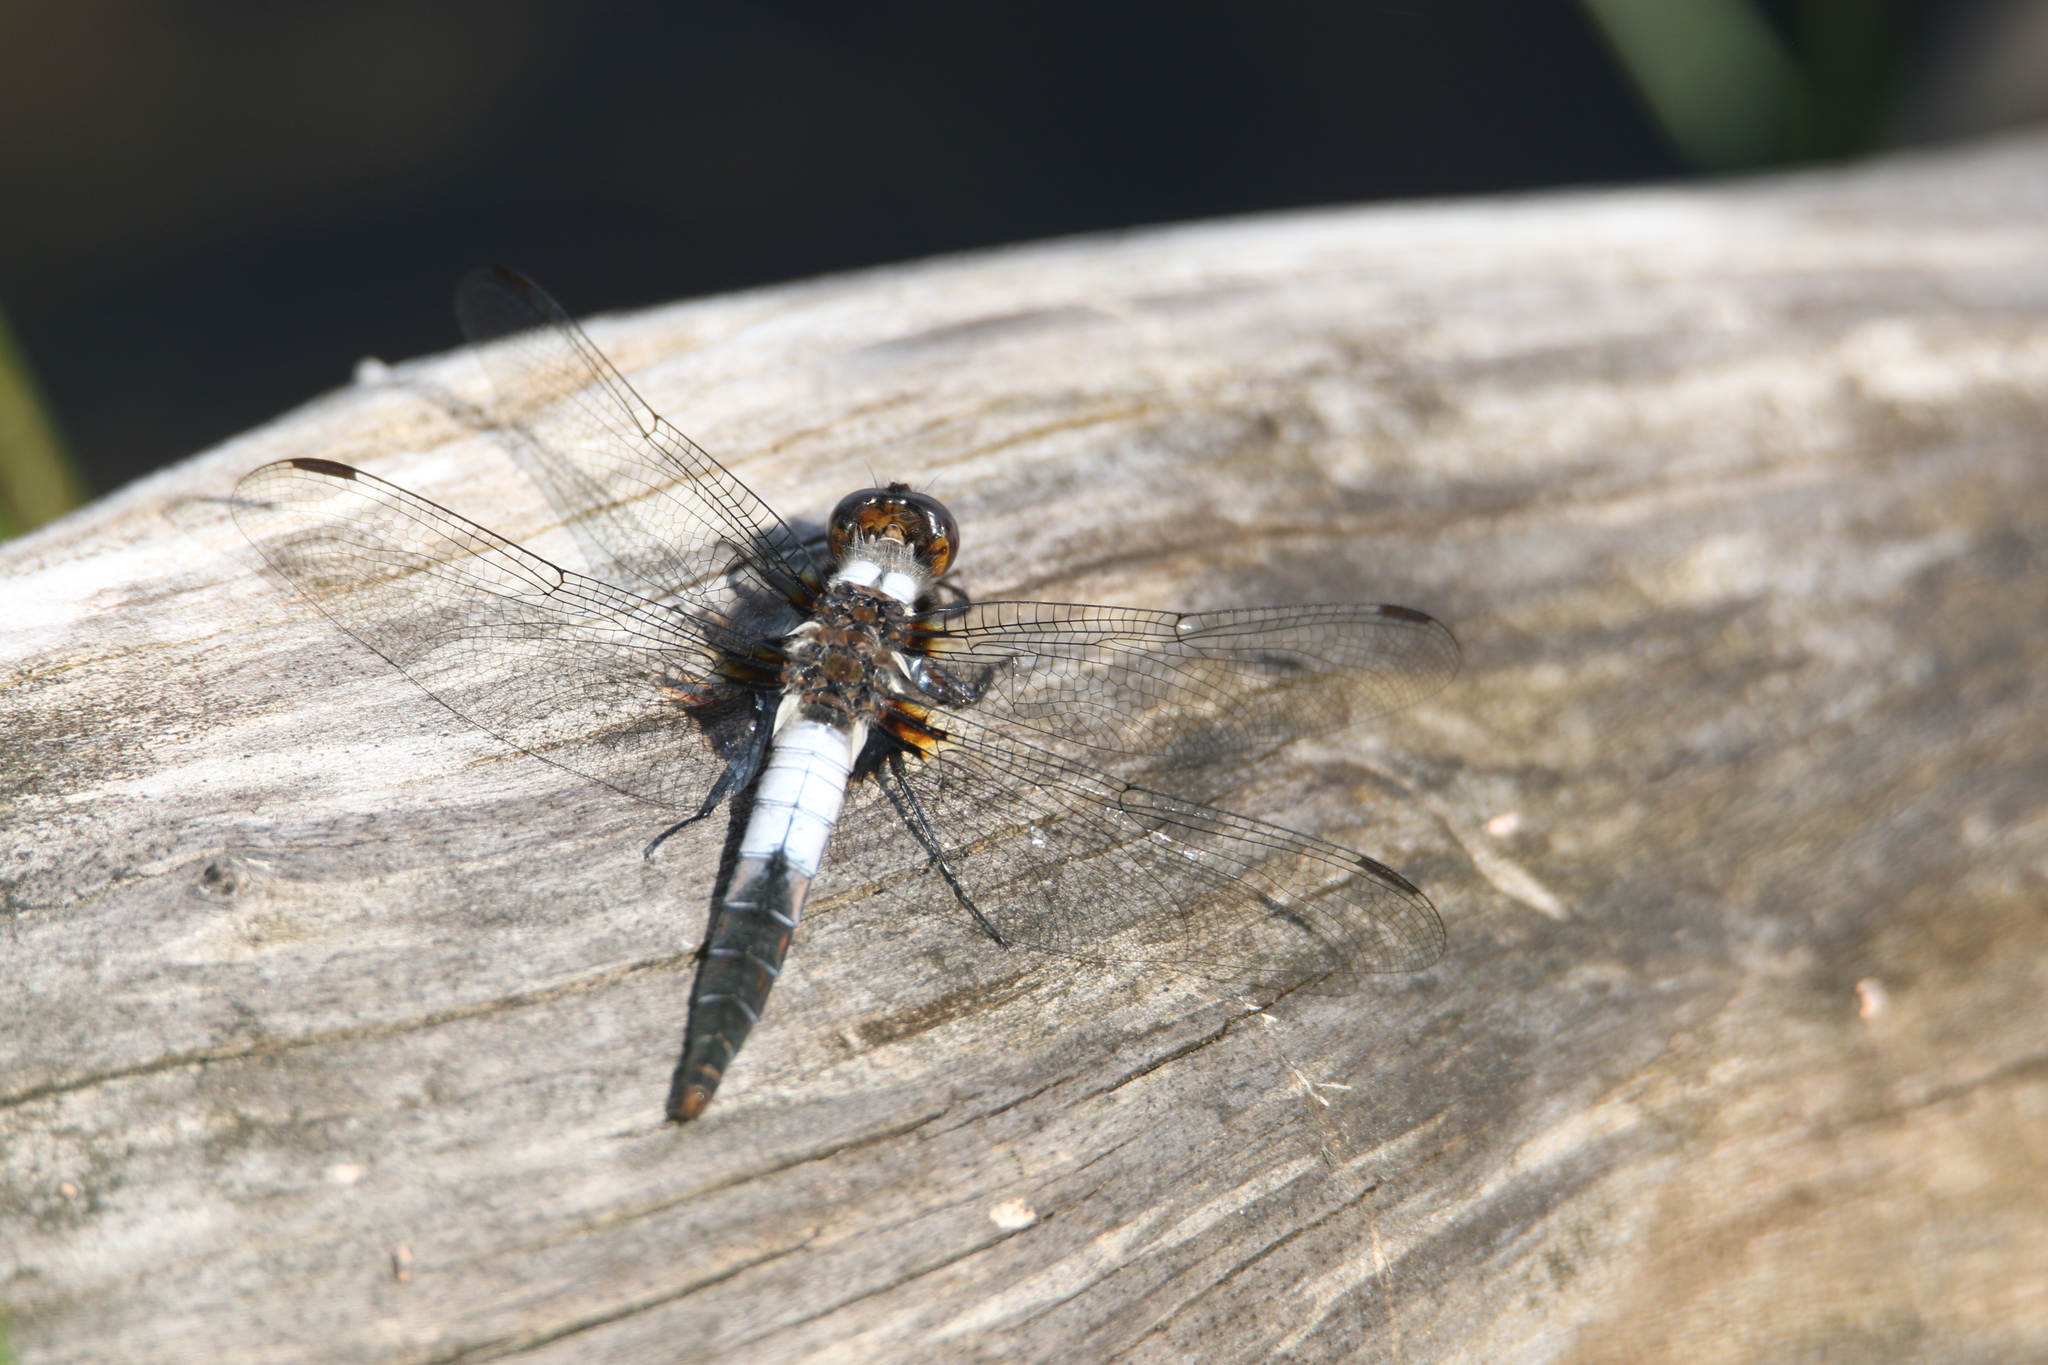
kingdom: Animalia
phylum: Arthropoda
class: Insecta
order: Odonata
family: Libellulidae
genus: Ladona
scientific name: Ladona julia
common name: Chalk-fronted corporal
